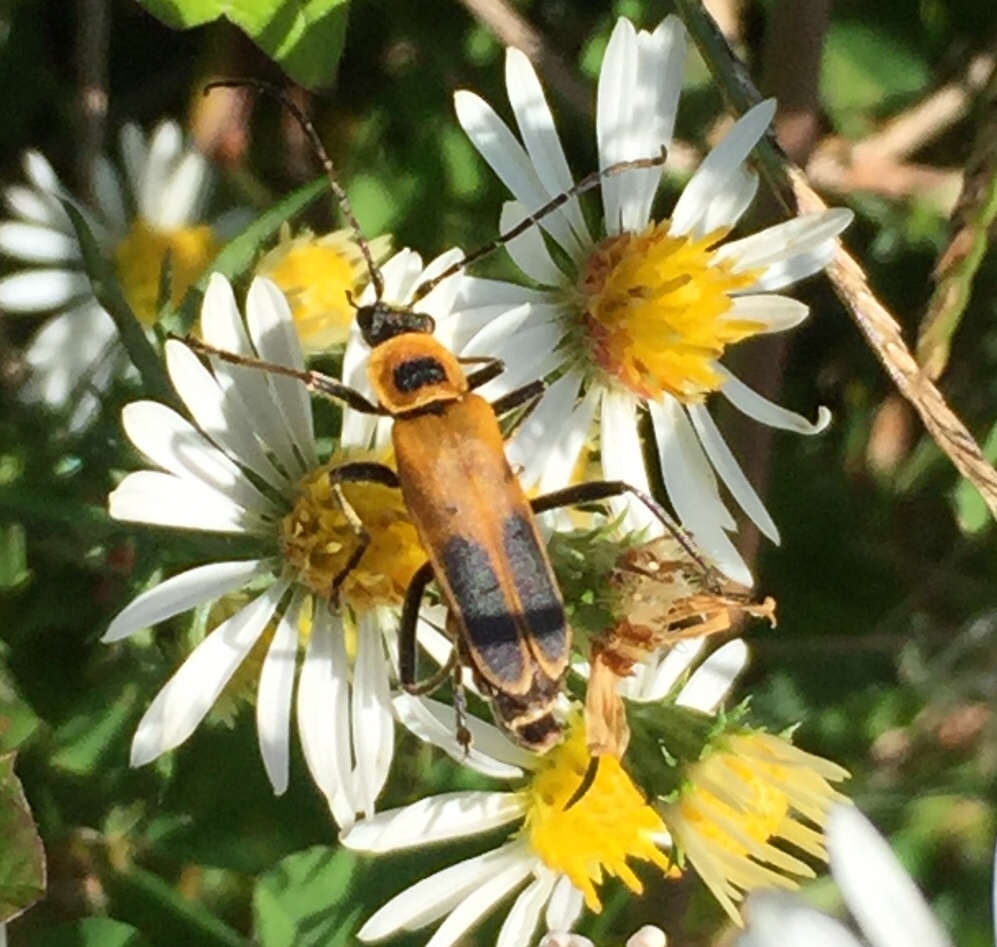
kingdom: Animalia
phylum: Arthropoda
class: Insecta
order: Coleoptera
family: Cantharidae
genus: Chauliognathus
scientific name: Chauliognathus pensylvanicus
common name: Goldenrod soldier beetle
